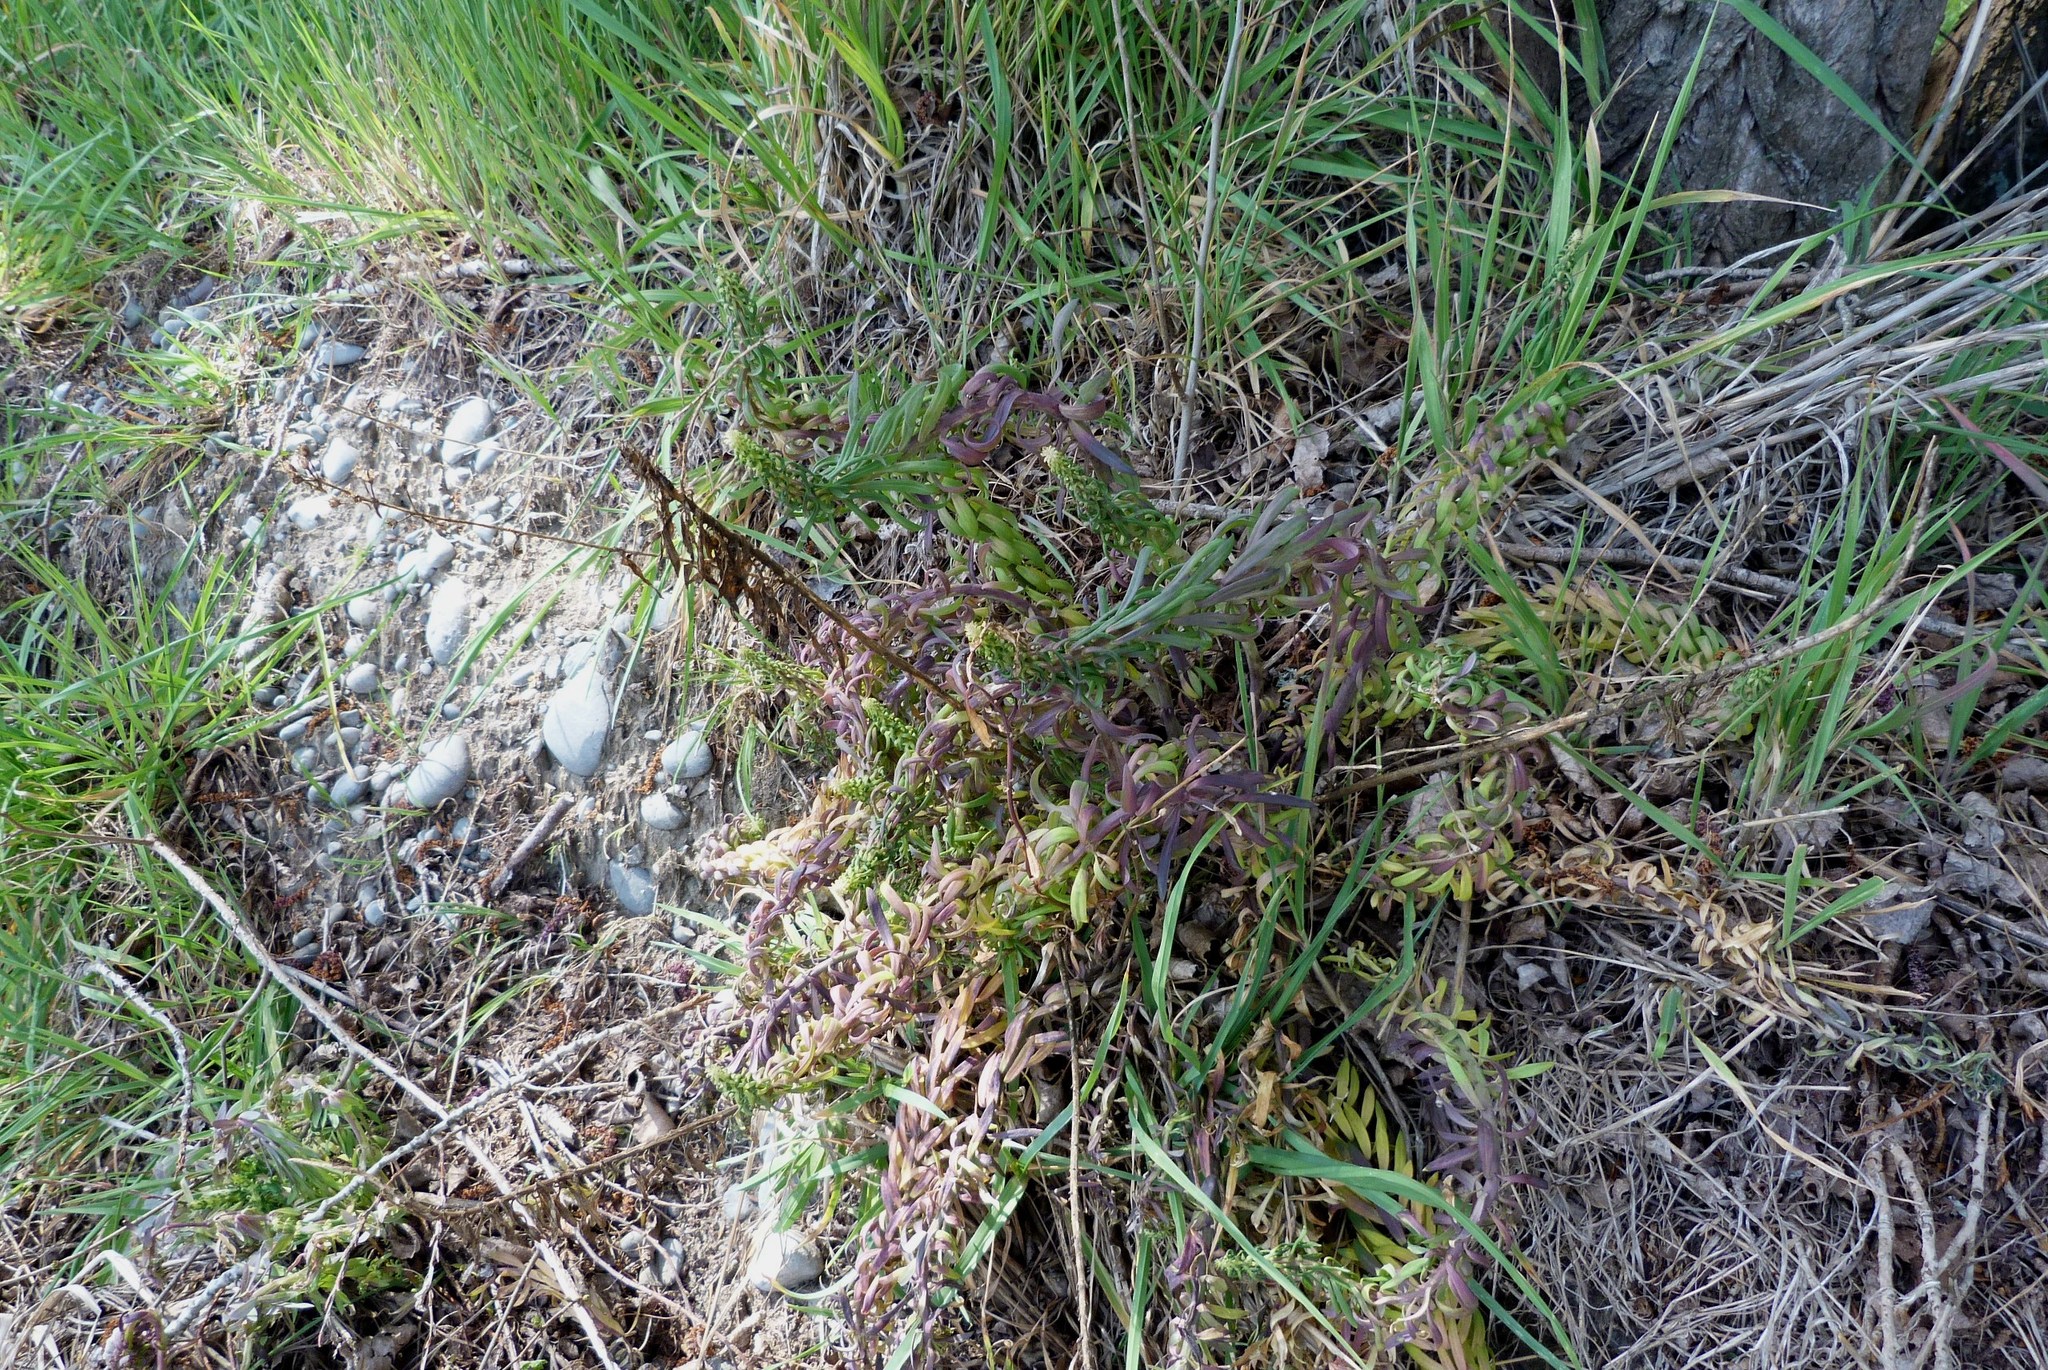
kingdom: Plantae
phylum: Tracheophyta
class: Magnoliopsida
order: Brassicales
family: Brassicaceae
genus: Erysimum
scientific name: Erysimum cheiri
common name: Wallflower
